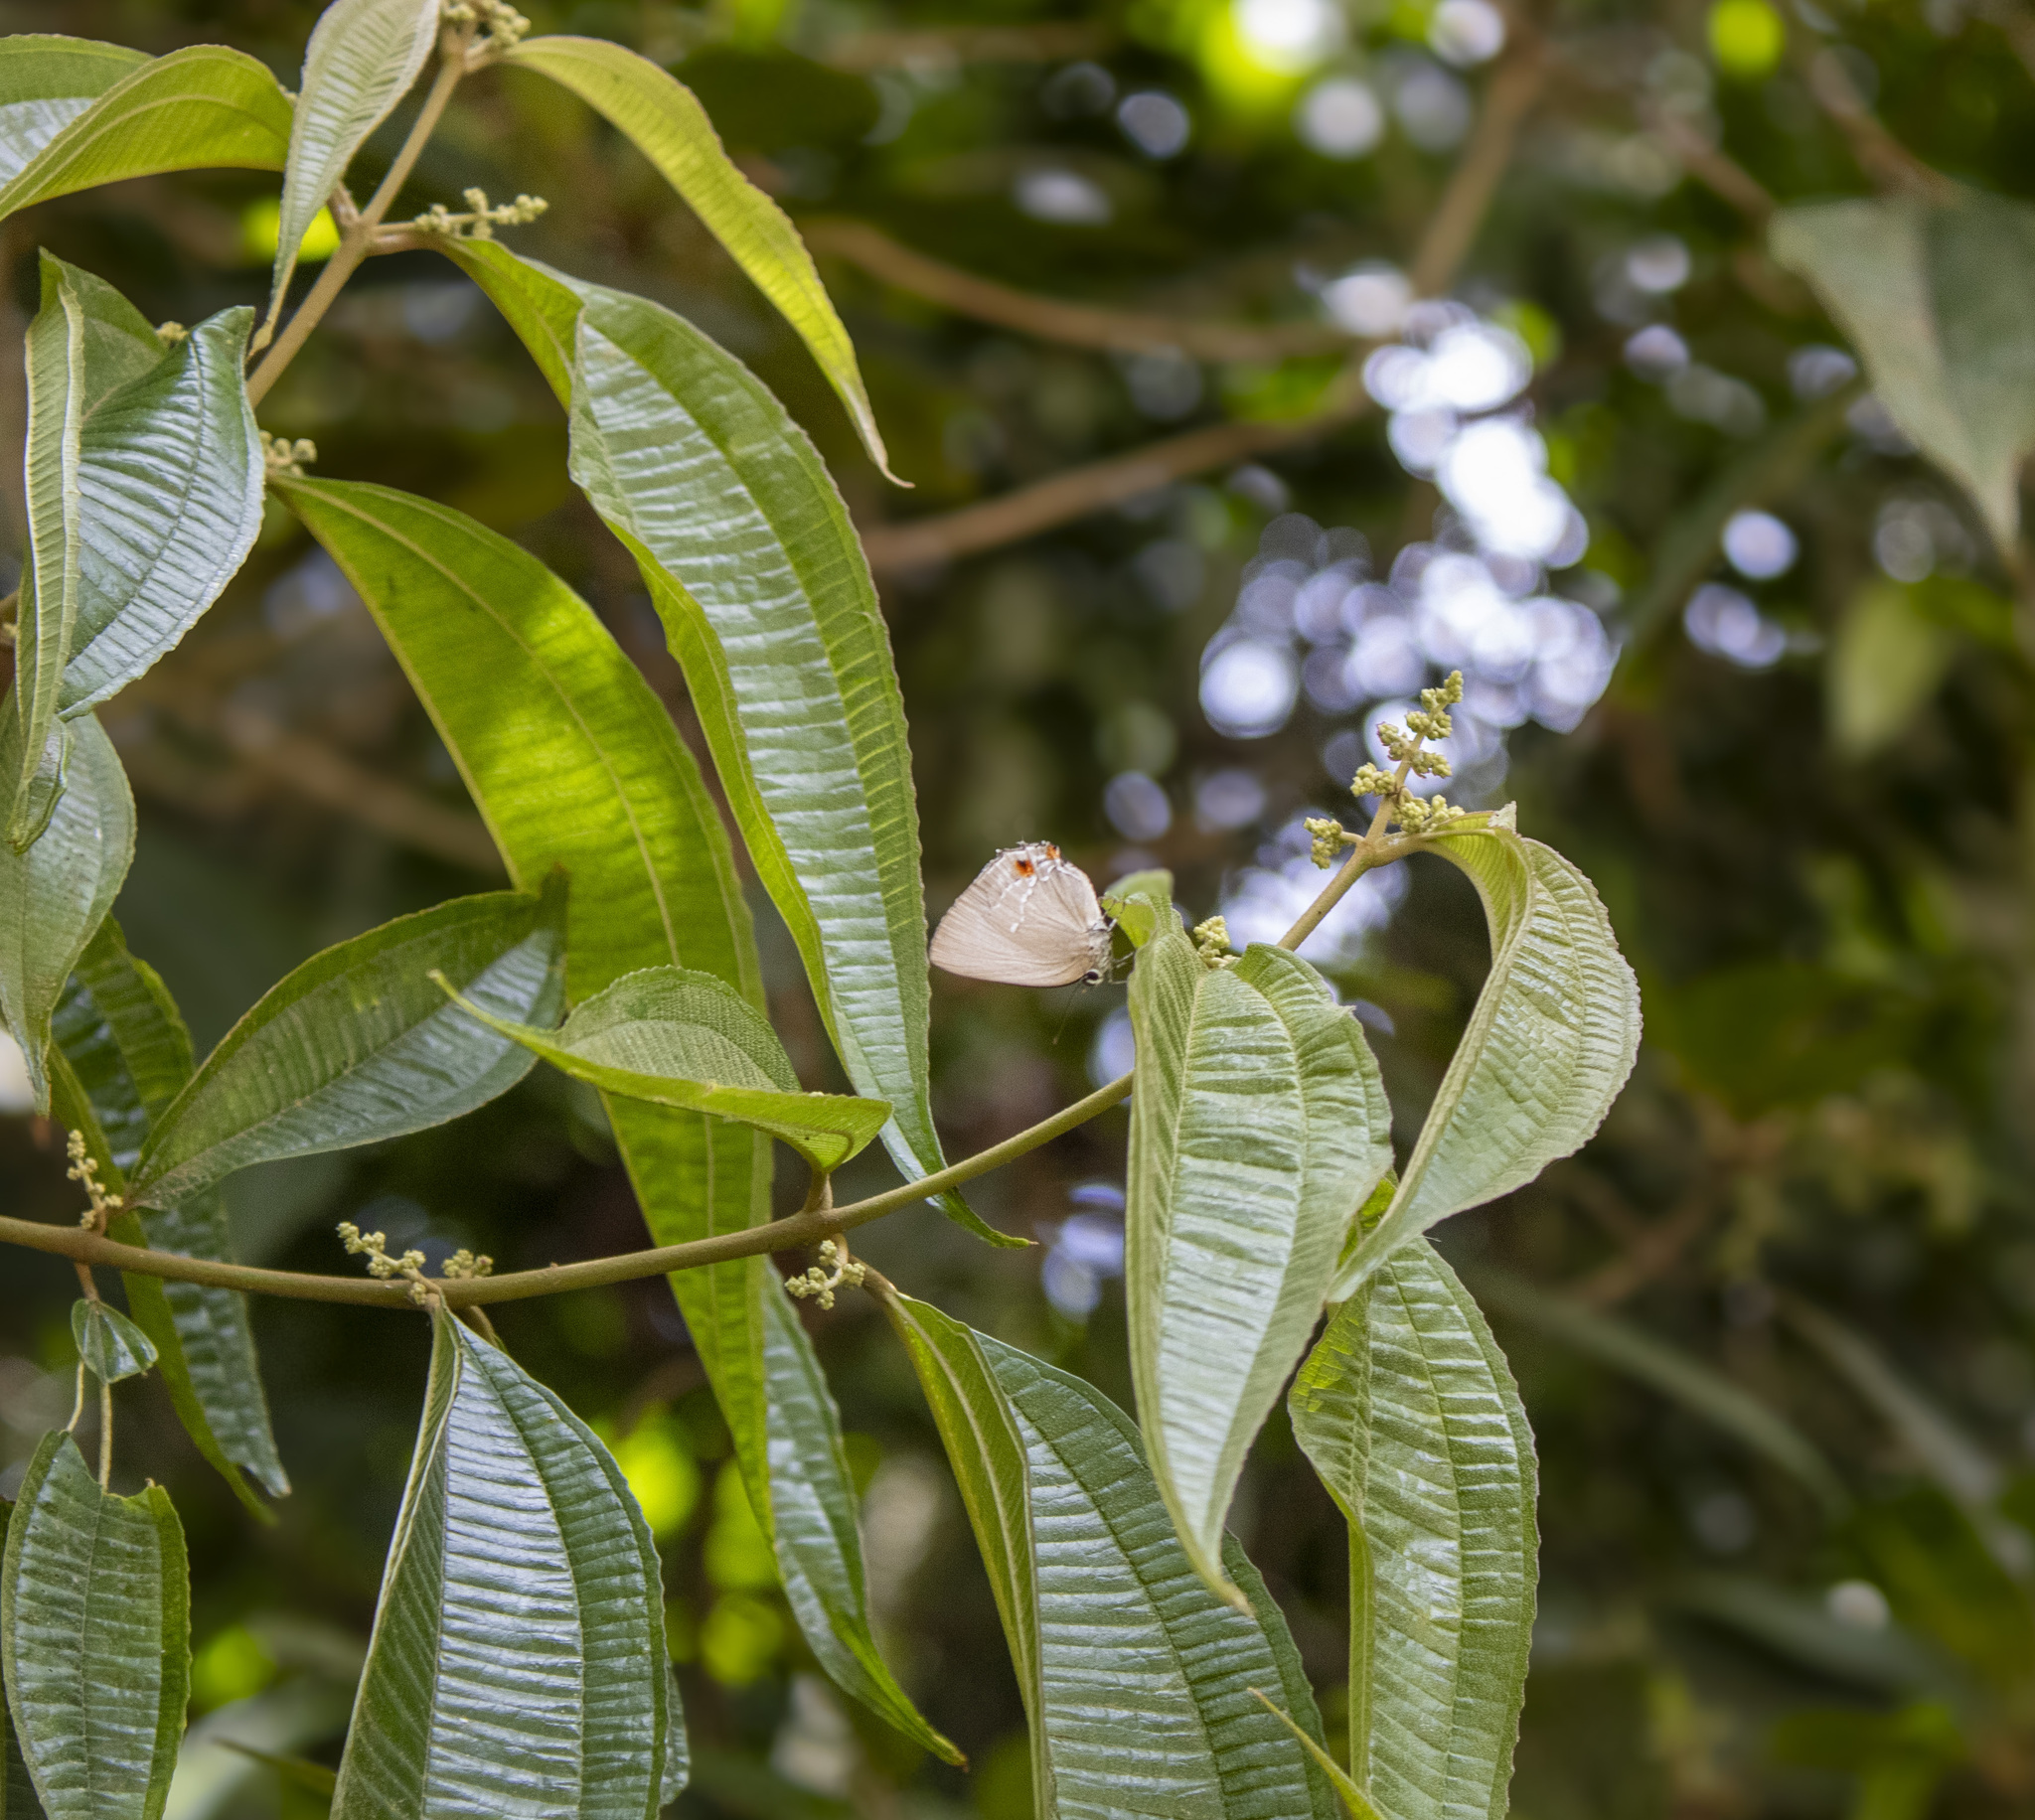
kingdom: Animalia
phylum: Arthropoda
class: Insecta
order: Lepidoptera
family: Lycaenidae
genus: Thecla
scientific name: Thecla ligurina
